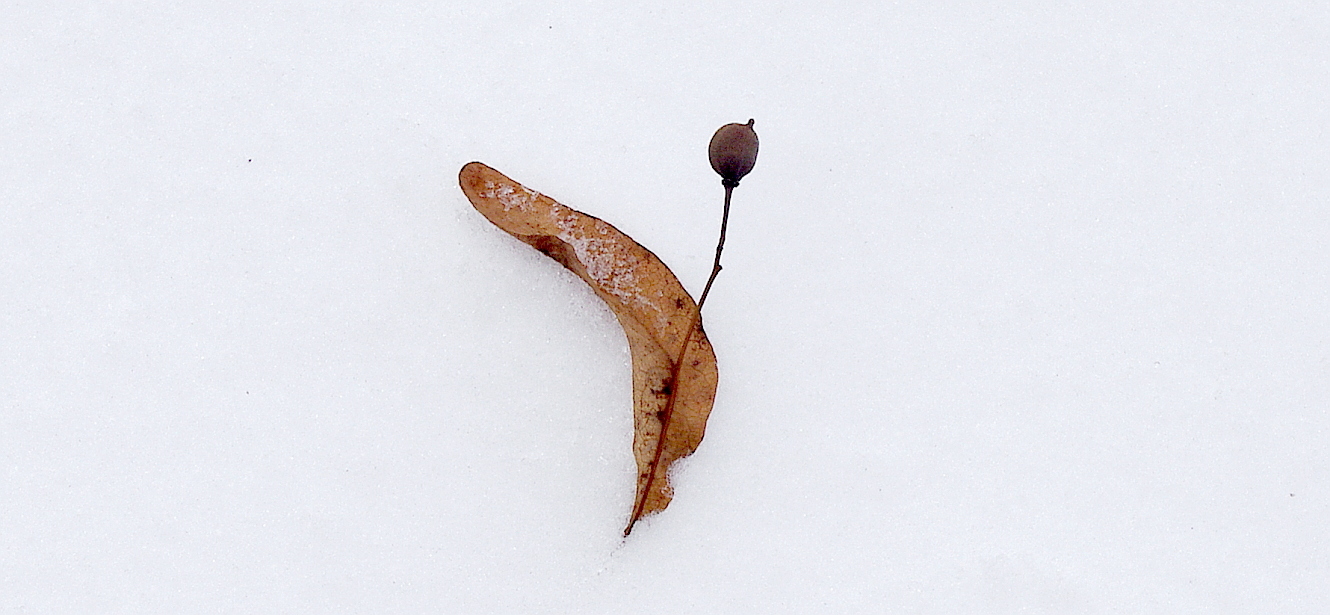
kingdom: Plantae
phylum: Tracheophyta
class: Magnoliopsida
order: Malvales
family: Malvaceae
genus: Tilia
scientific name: Tilia cordata
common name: Small-leaved lime
